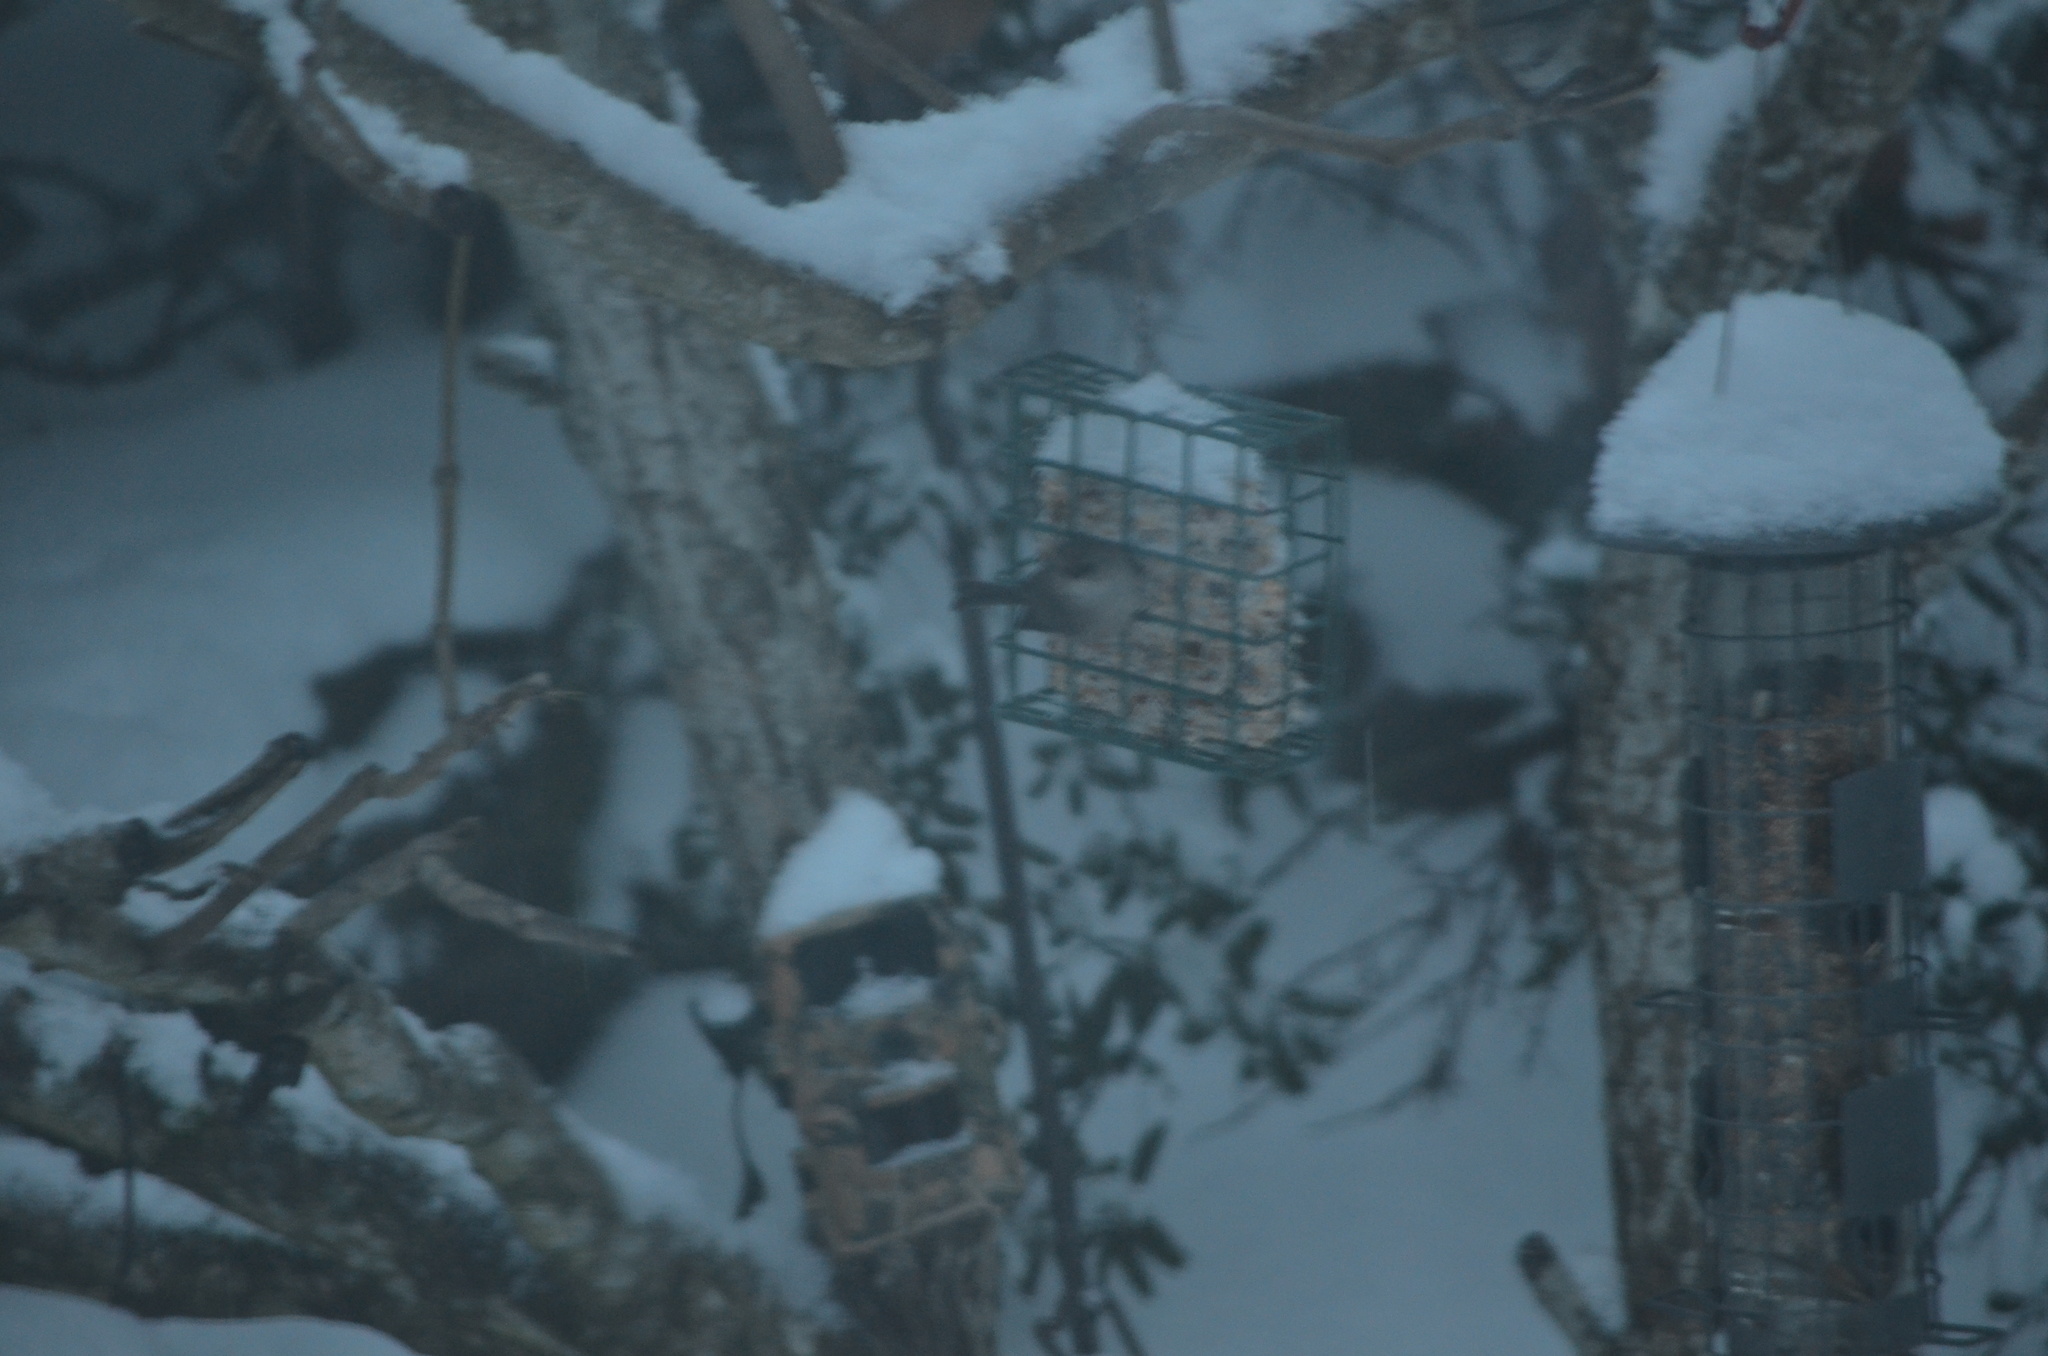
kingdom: Animalia
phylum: Chordata
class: Aves
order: Passeriformes
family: Aegithalidae
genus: Psaltriparus
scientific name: Psaltriparus minimus
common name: American bushtit
